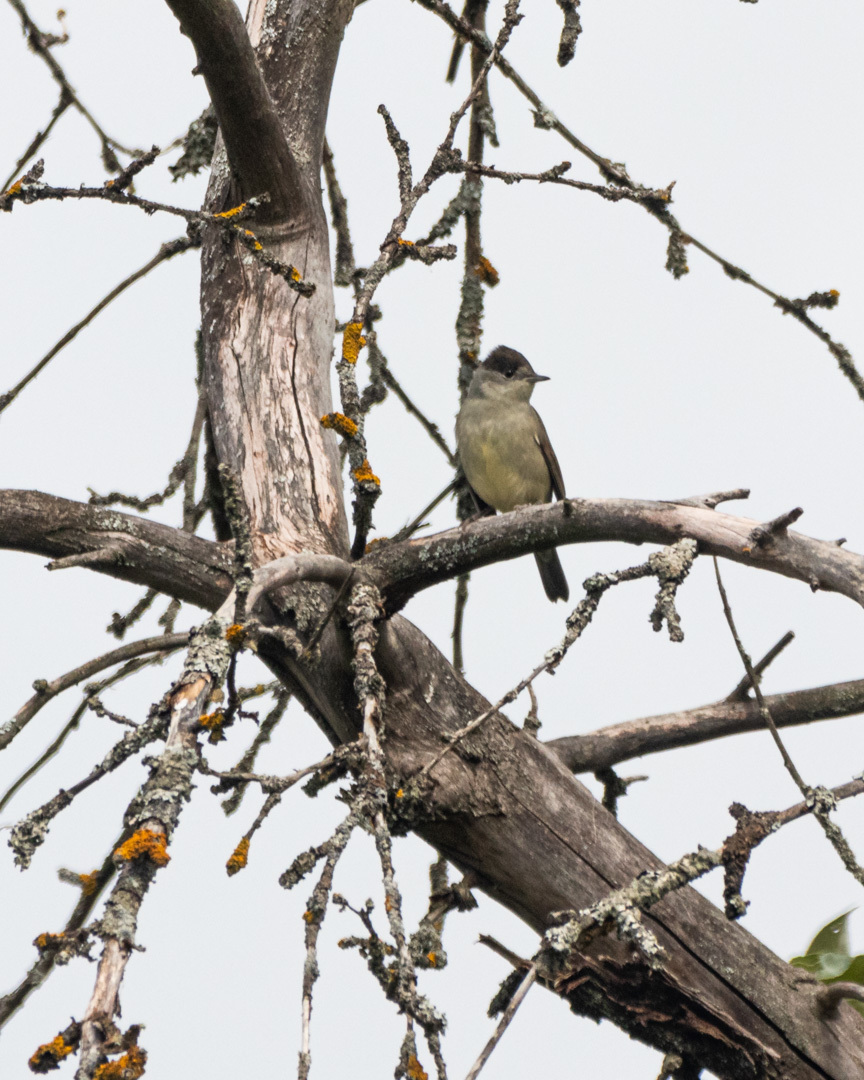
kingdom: Animalia
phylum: Chordata
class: Aves
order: Passeriformes
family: Sylviidae
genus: Sylvia
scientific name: Sylvia atricapilla
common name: Eurasian blackcap
